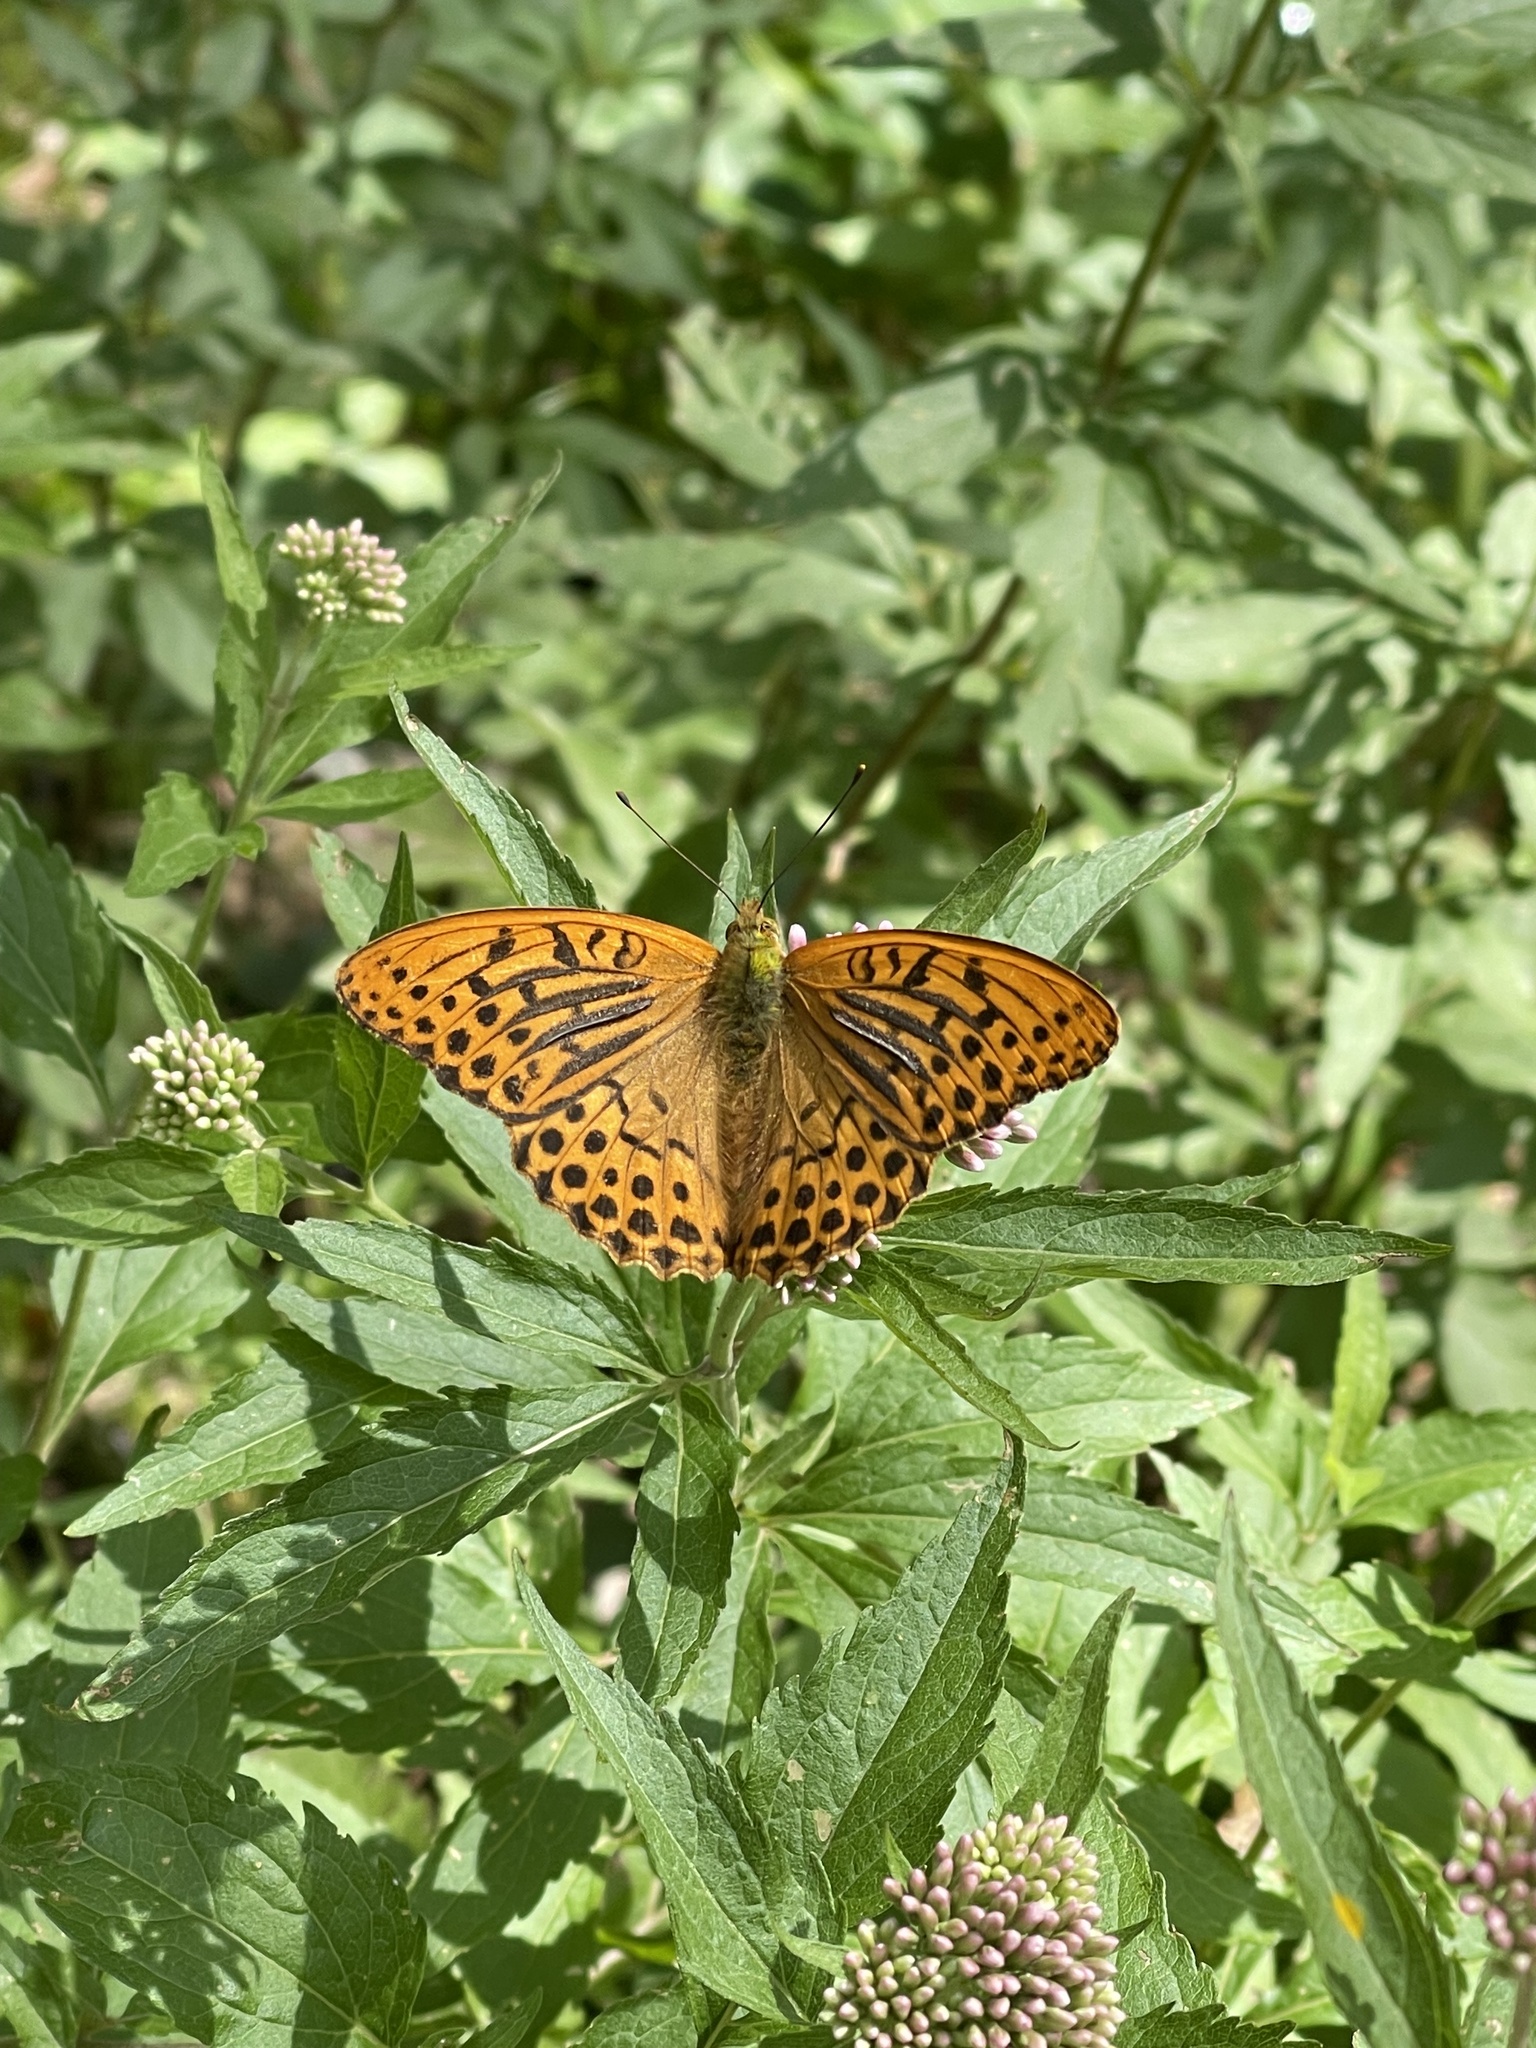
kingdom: Animalia
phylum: Arthropoda
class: Insecta
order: Lepidoptera
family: Nymphalidae
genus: Argynnis
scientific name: Argynnis paphia
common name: Silver-washed fritillary
